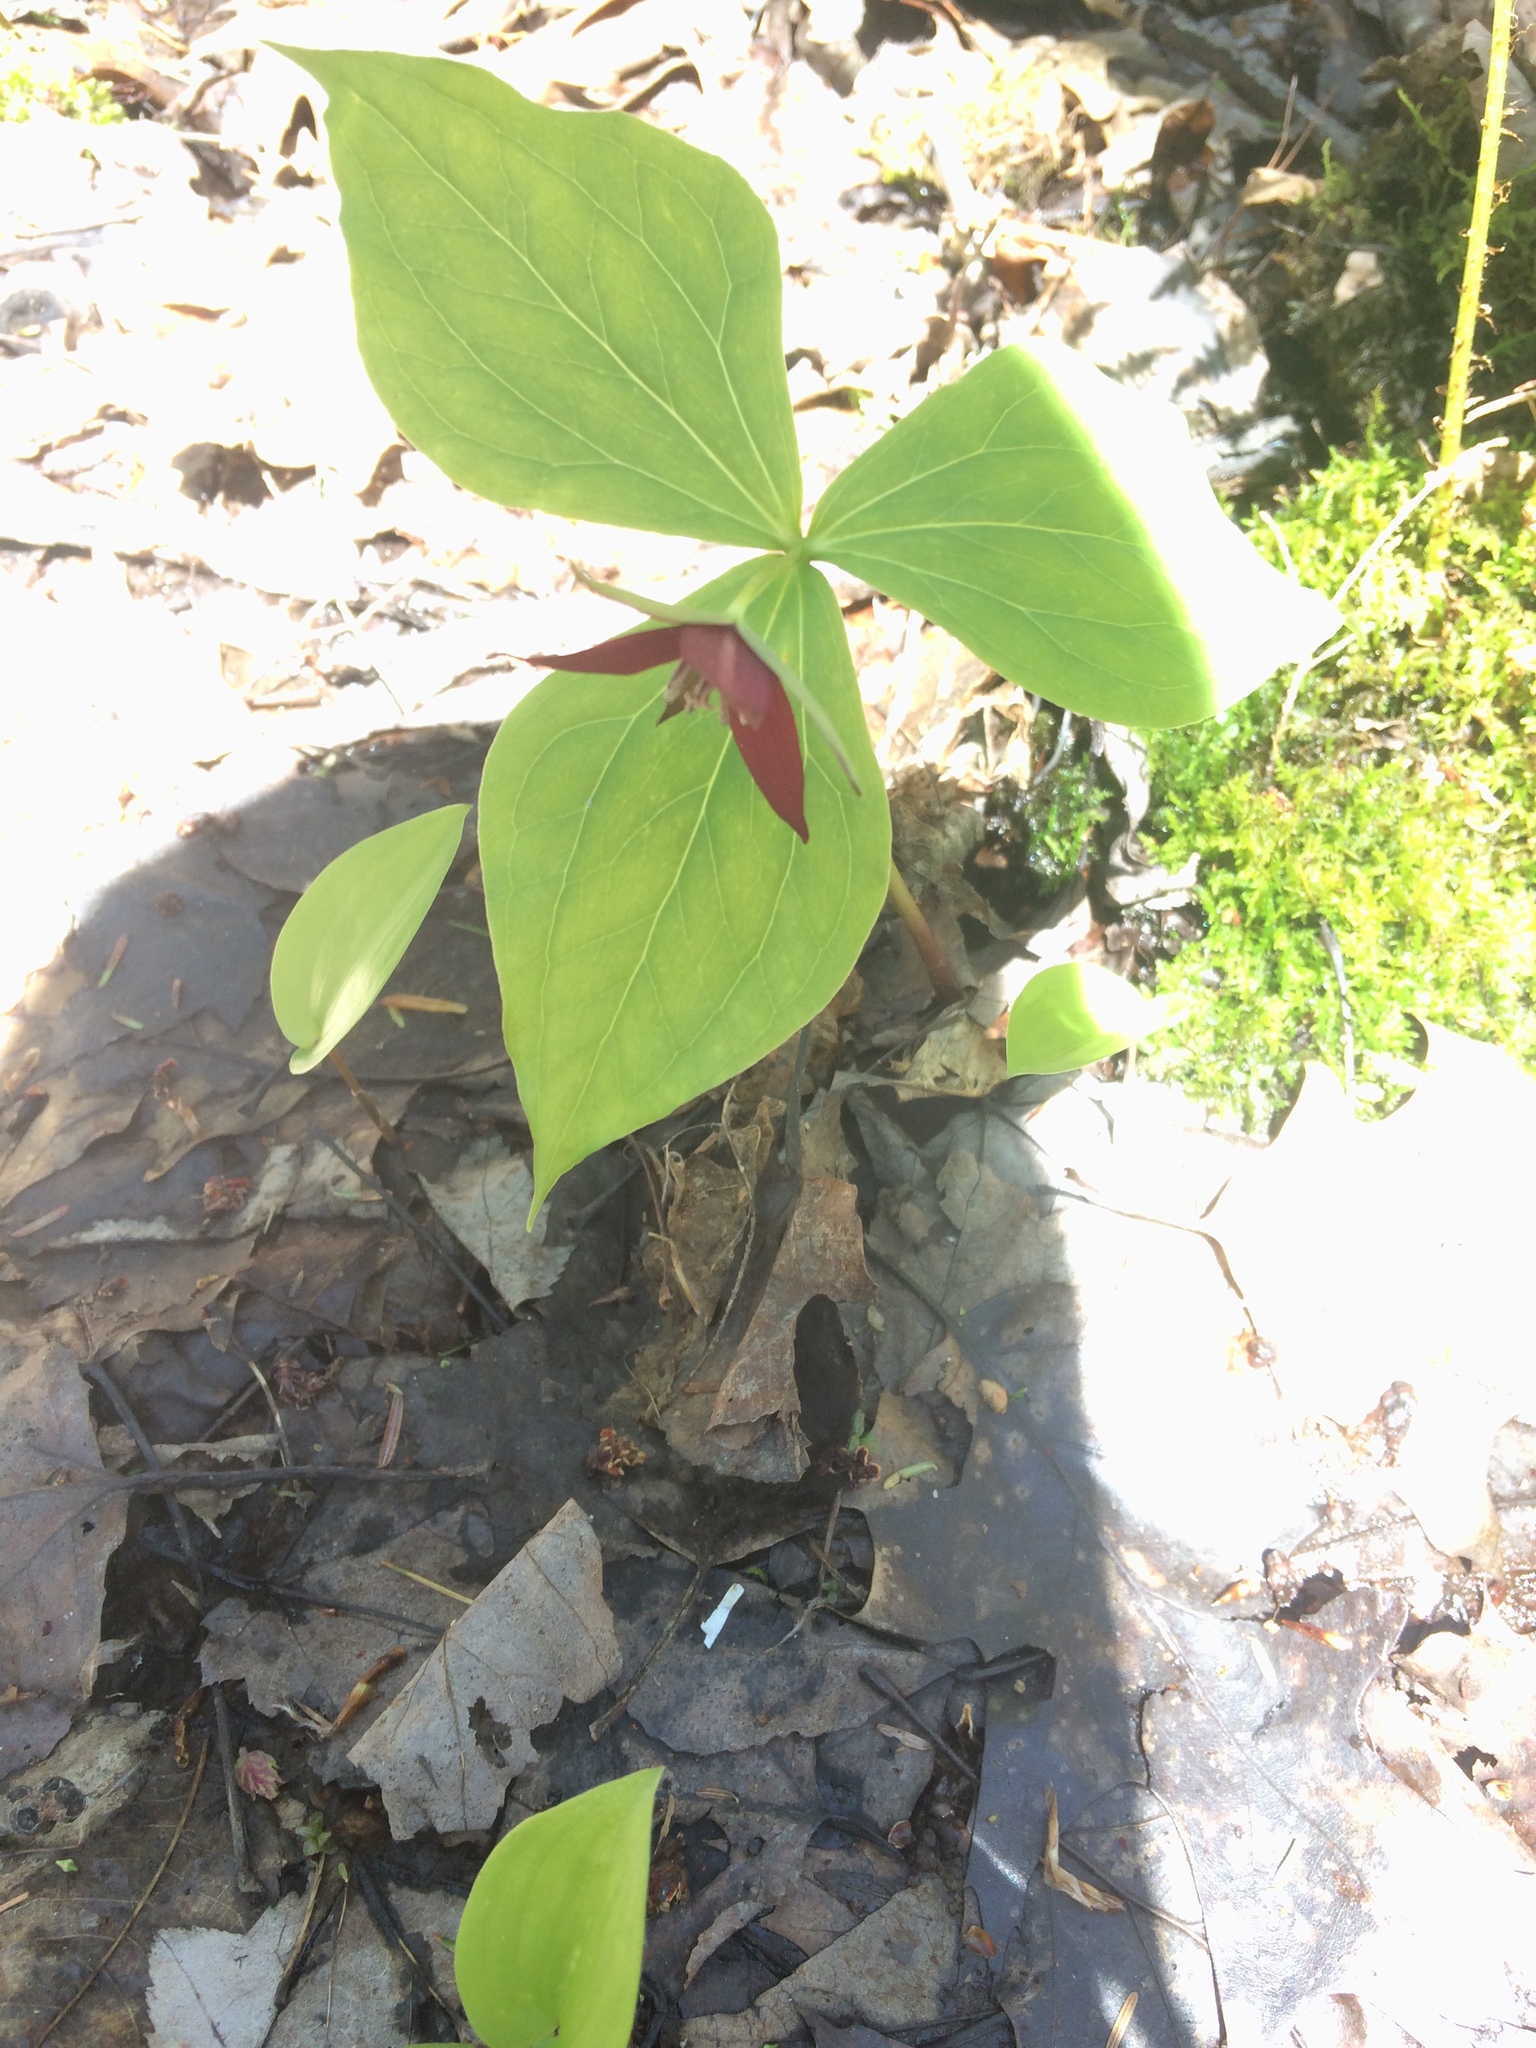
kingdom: Plantae
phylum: Tracheophyta
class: Liliopsida
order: Liliales
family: Melanthiaceae
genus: Trillium
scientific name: Trillium erectum
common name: Purple trillium
